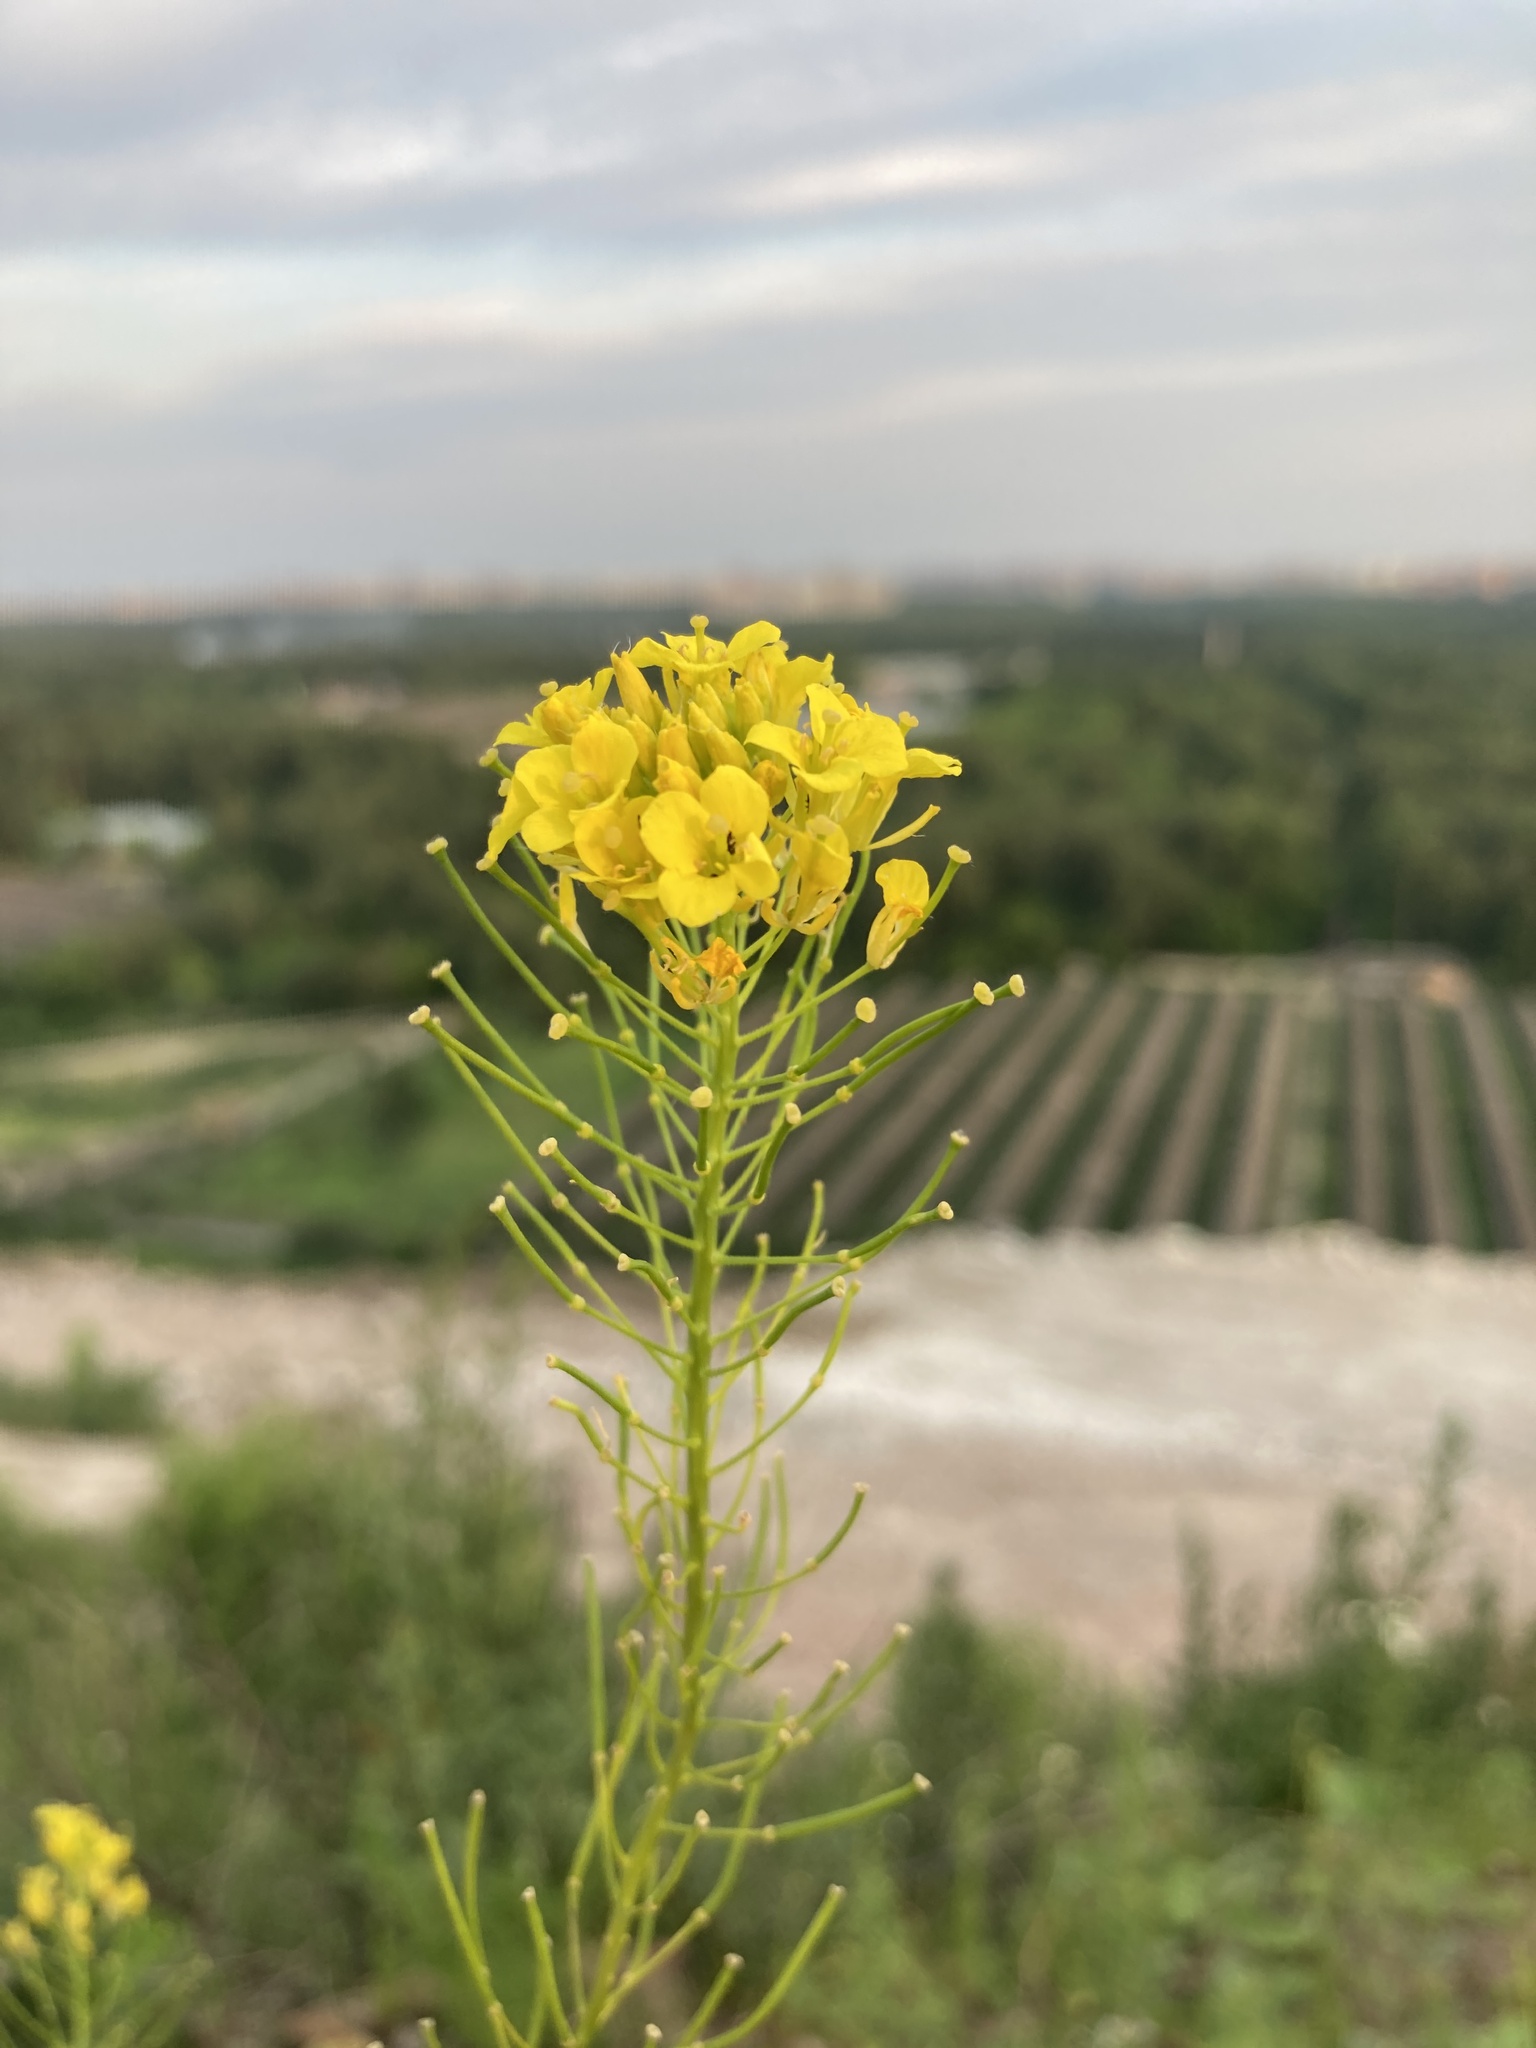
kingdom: Plantae
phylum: Tracheophyta
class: Magnoliopsida
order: Brassicales
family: Brassicaceae
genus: Sisymbrium
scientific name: Sisymbrium loeselii
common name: False london-rocket
